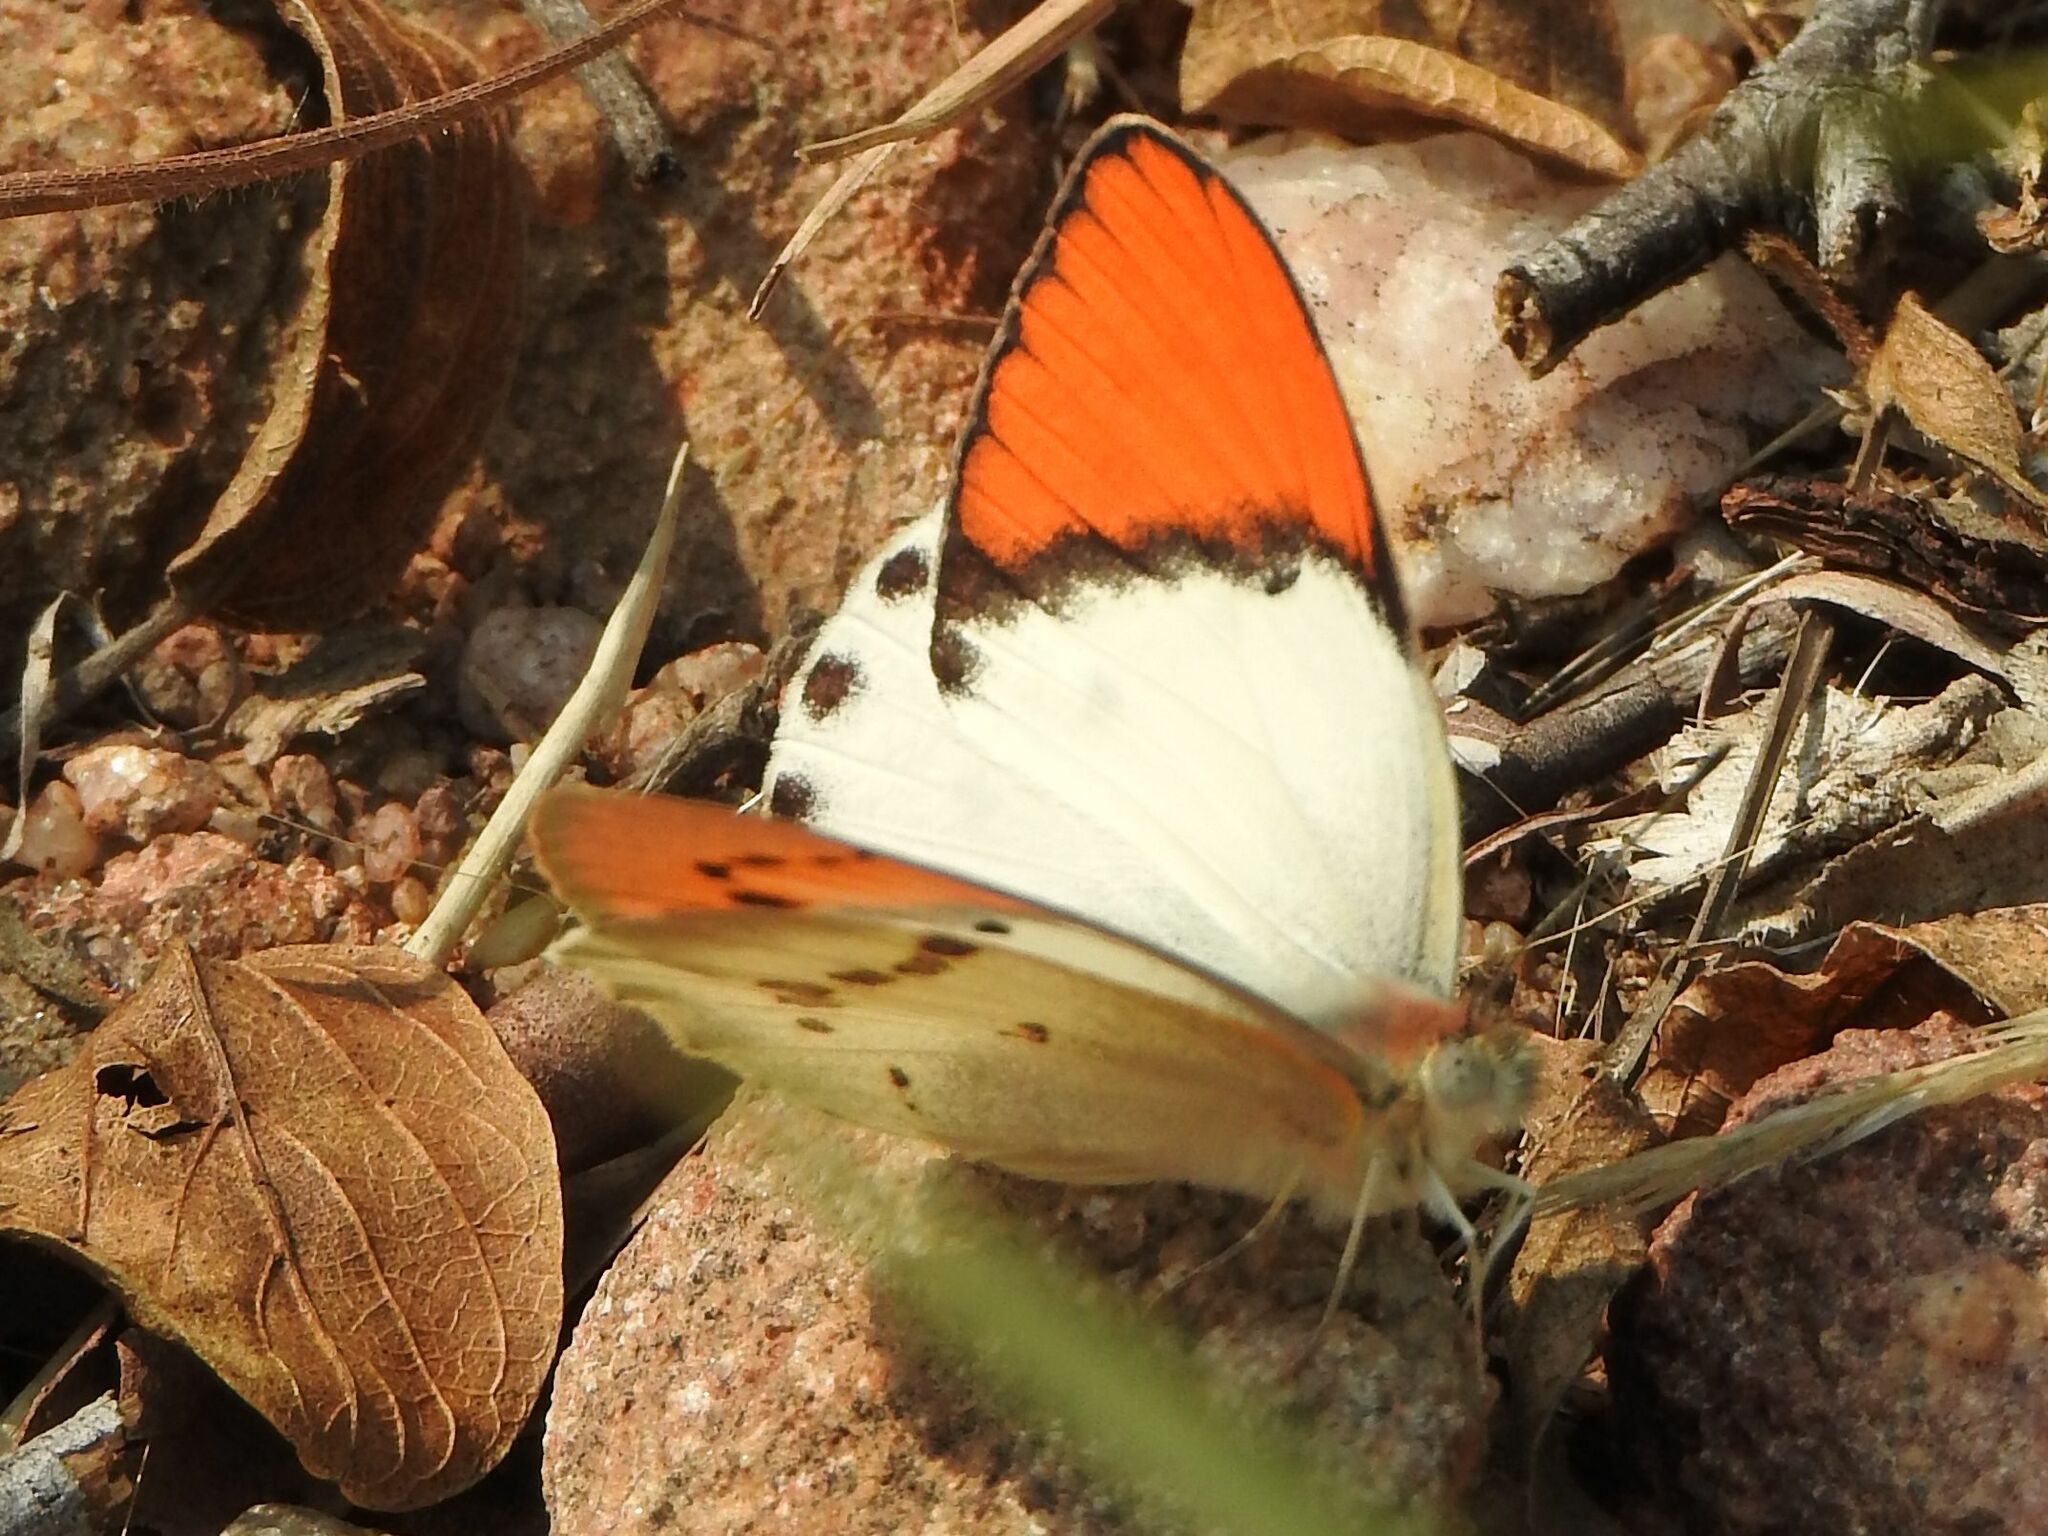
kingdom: Animalia
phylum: Arthropoda
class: Insecta
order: Lepidoptera
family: Pieridae
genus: Colotis
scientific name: Colotis annae
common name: Scarlet tip
